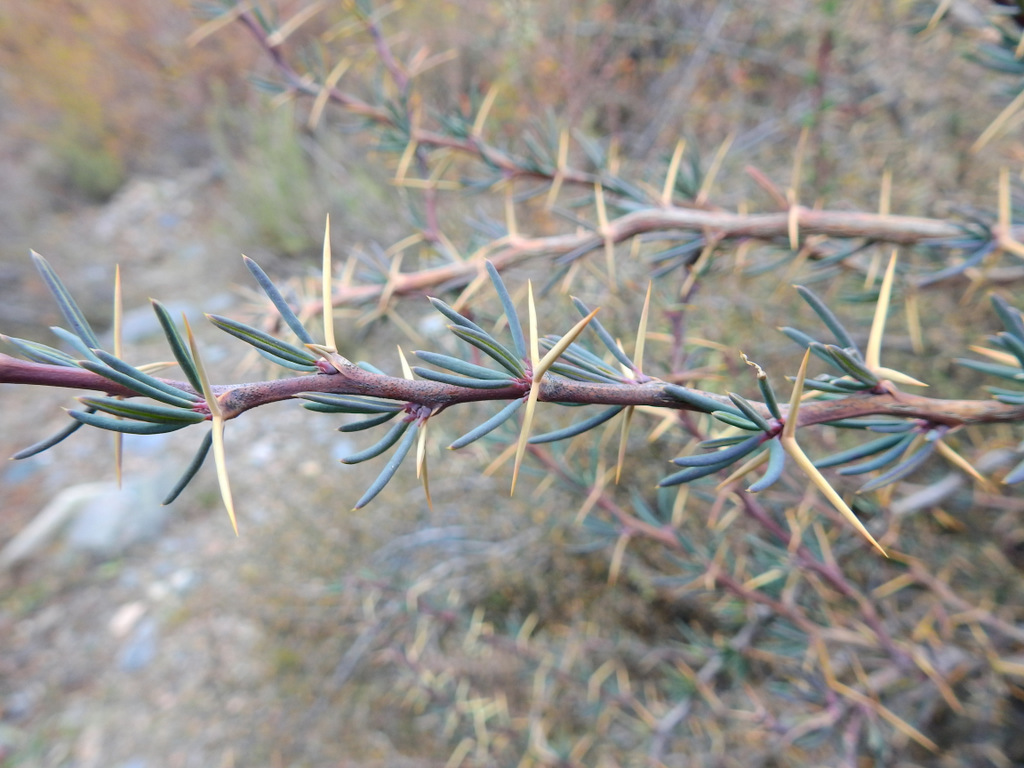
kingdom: Plantae
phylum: Tracheophyta
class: Magnoliopsida
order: Ranunculales
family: Berberidaceae
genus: Berberis
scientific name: Berberis empetrifolia
